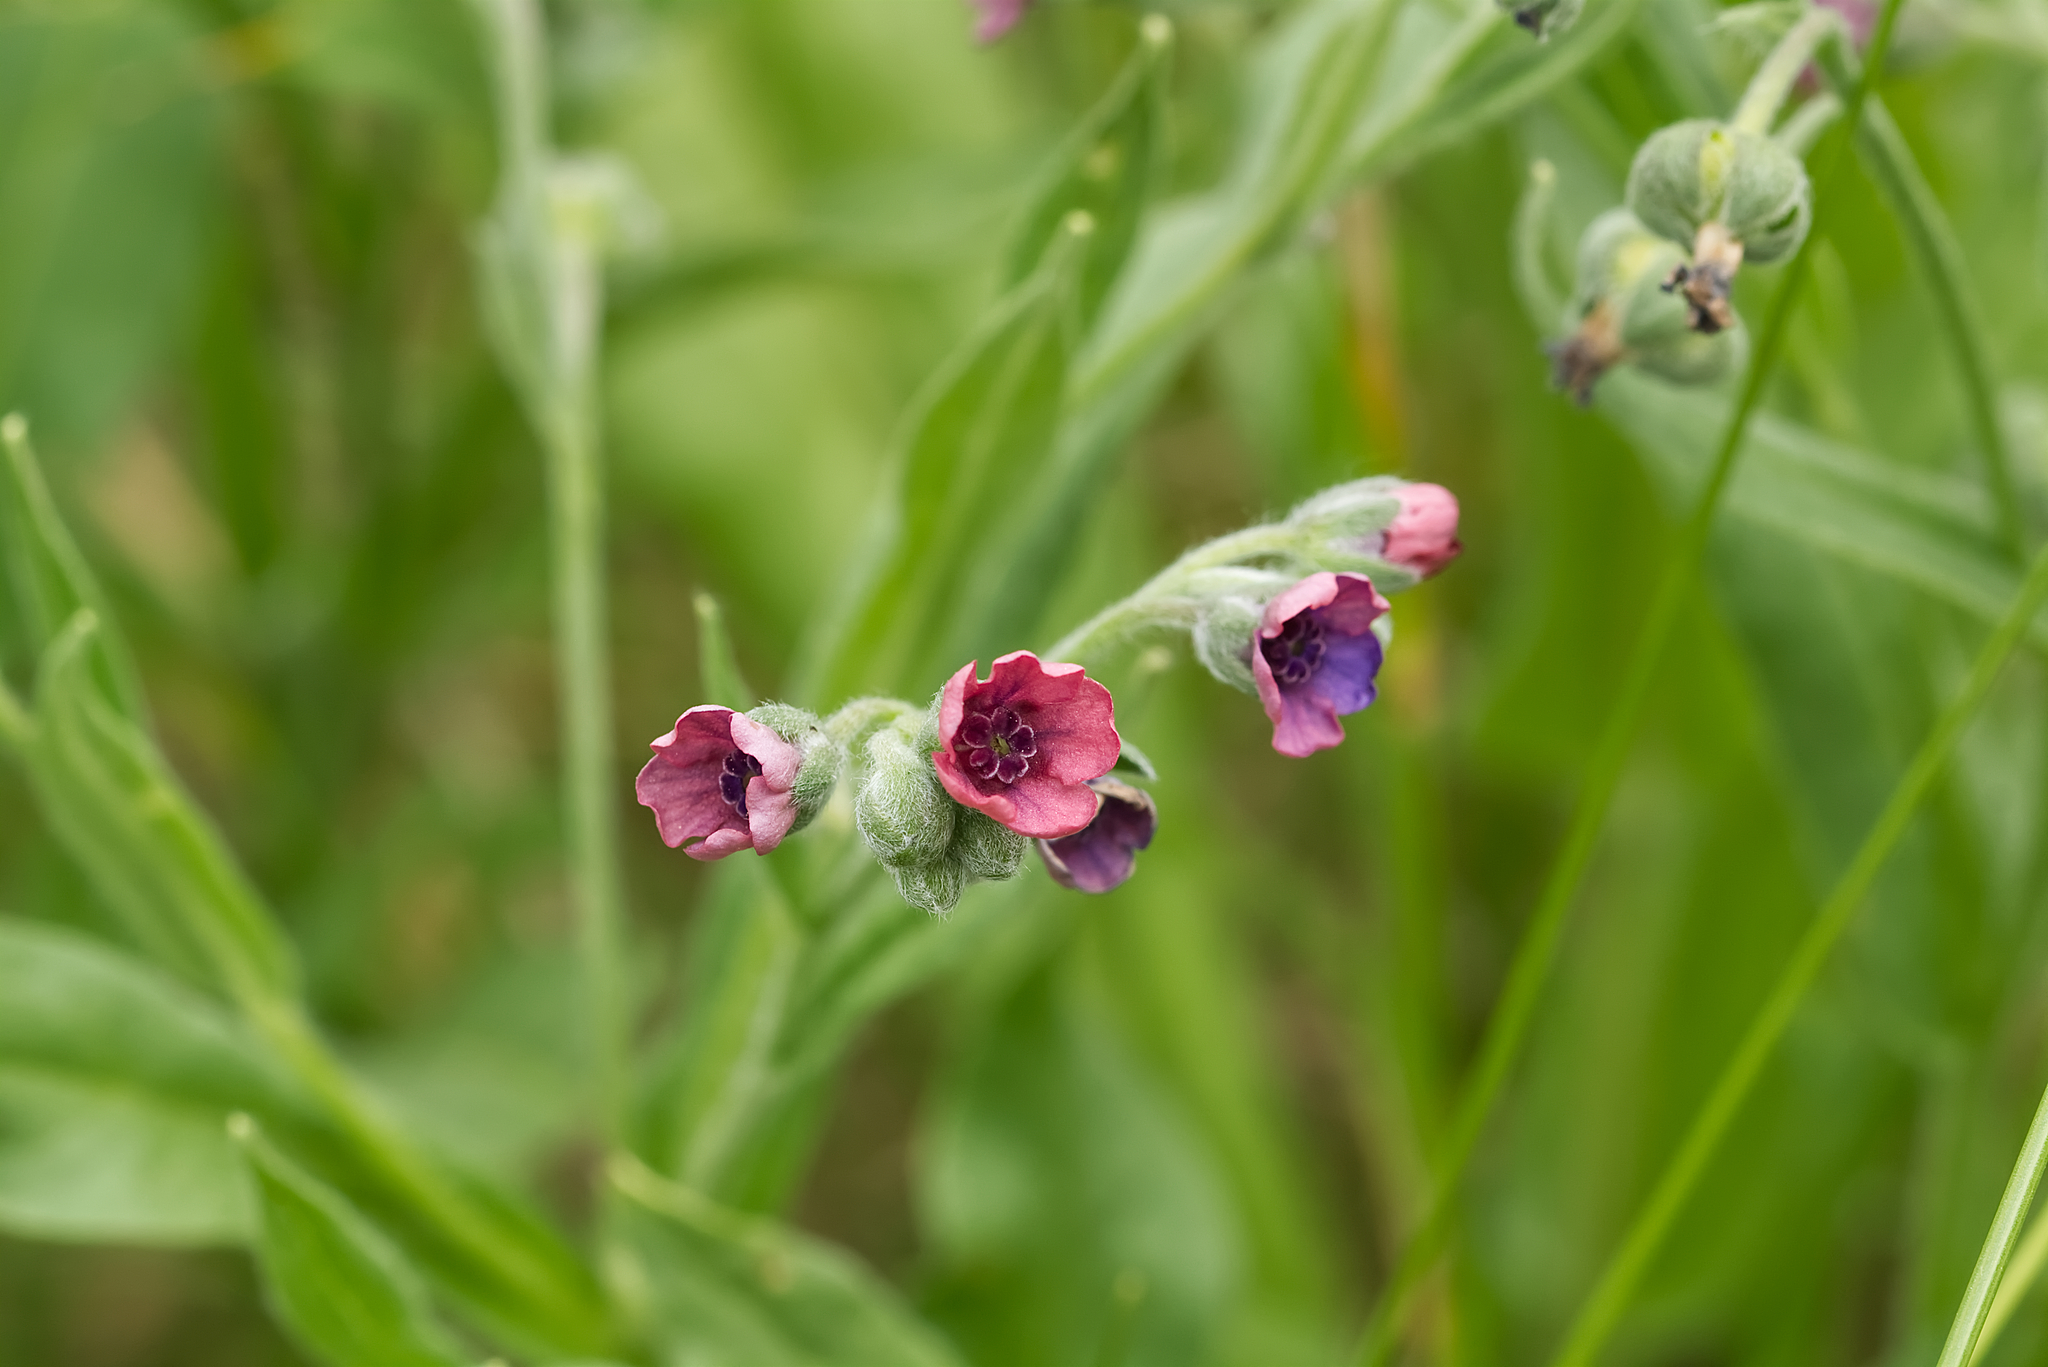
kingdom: Plantae
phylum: Tracheophyta
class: Magnoliopsida
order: Boraginales
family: Boraginaceae
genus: Cynoglossum
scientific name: Cynoglossum officinale
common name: Hound's-tongue
